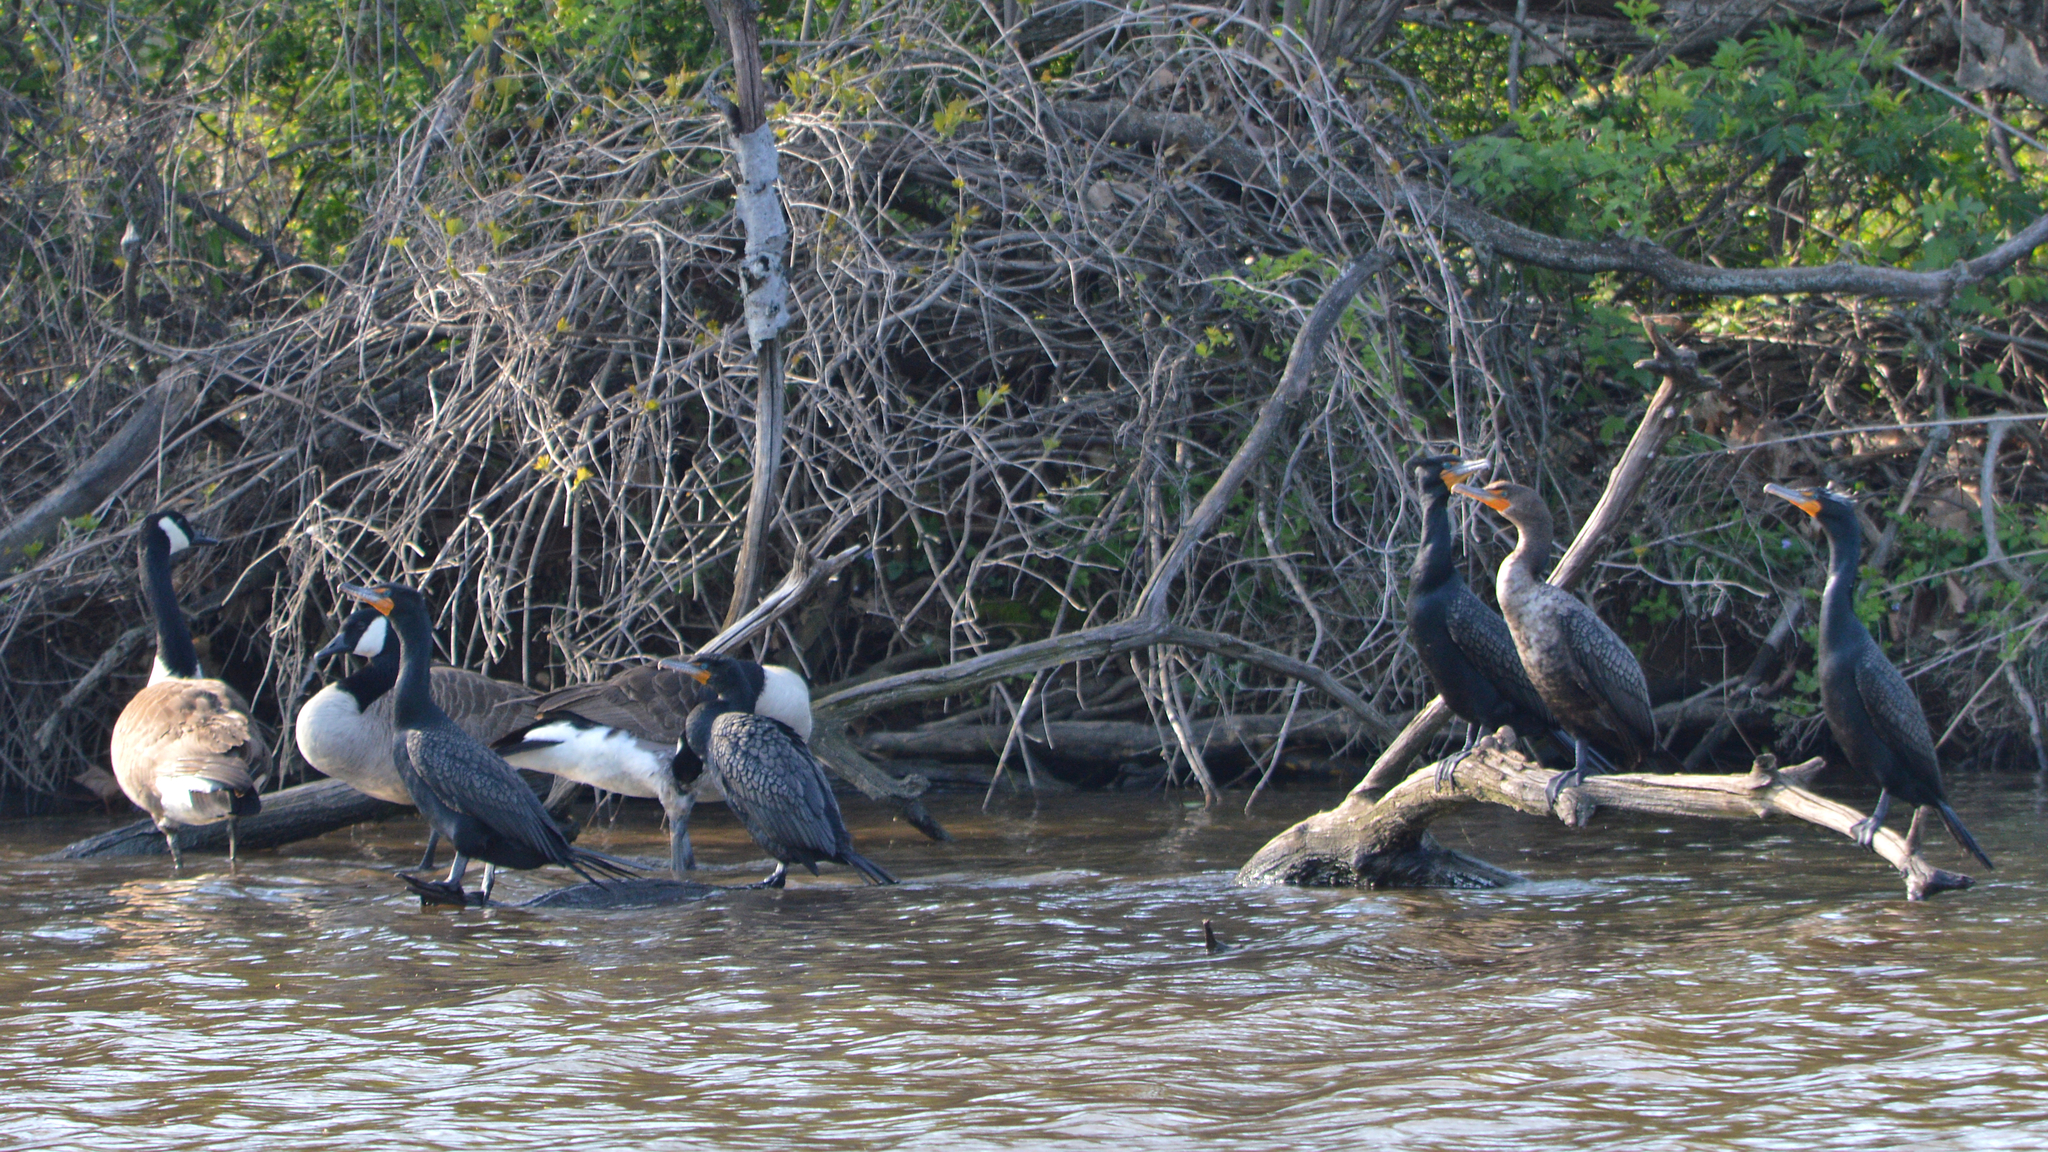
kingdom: Animalia
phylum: Chordata
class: Aves
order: Suliformes
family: Phalacrocoracidae
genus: Phalacrocorax
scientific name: Phalacrocorax auritus
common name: Double-crested cormorant
